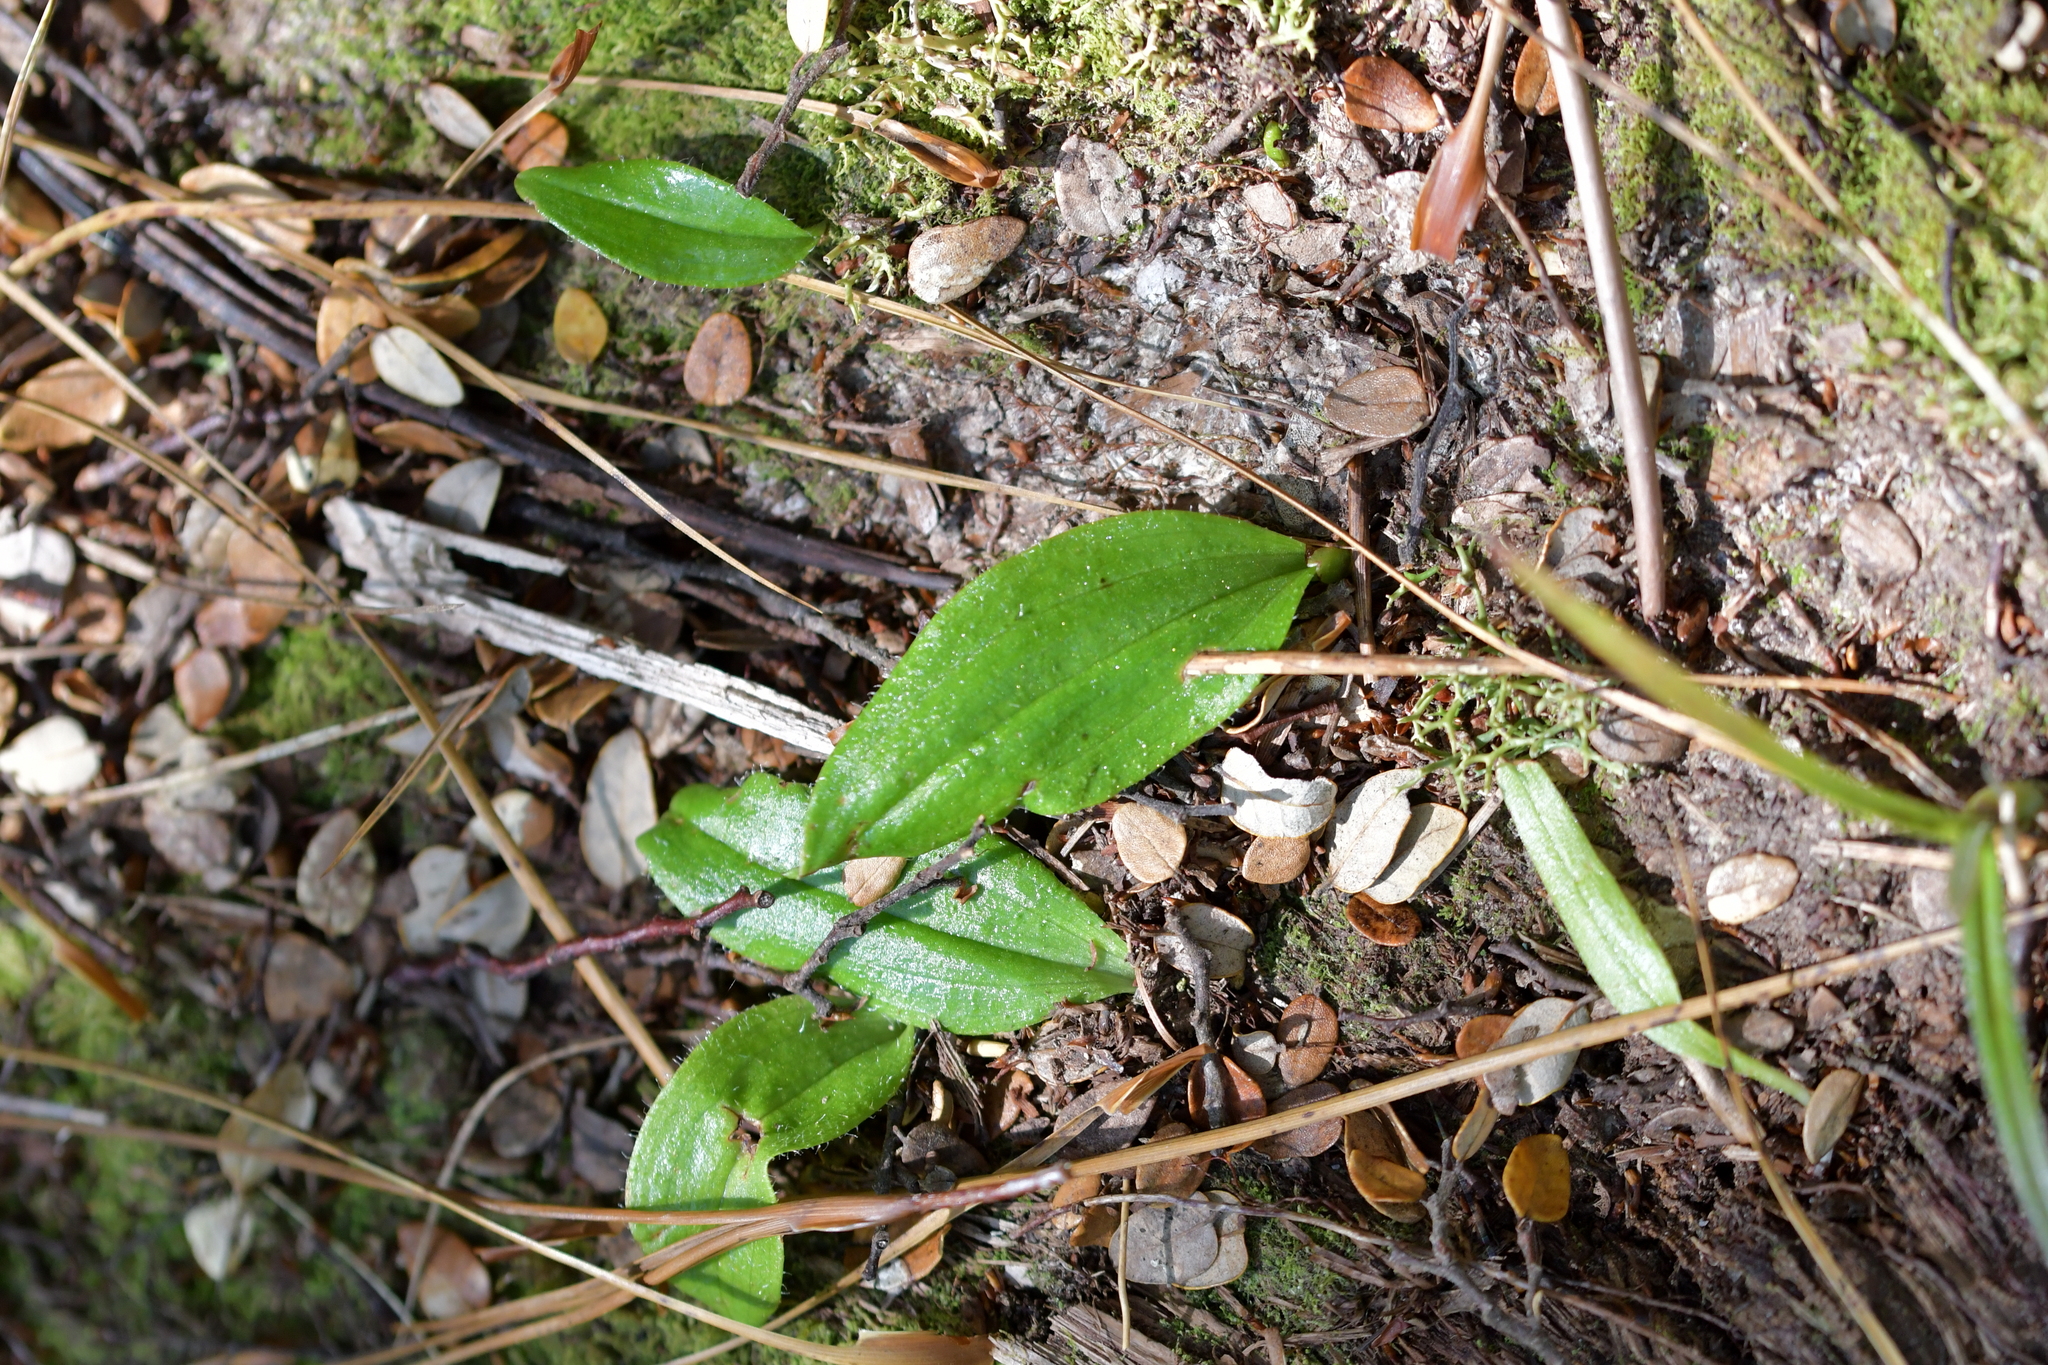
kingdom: Plantae
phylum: Tracheophyta
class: Liliopsida
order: Asparagales
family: Orchidaceae
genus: Aporostylis
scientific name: Aporostylis bifolia
